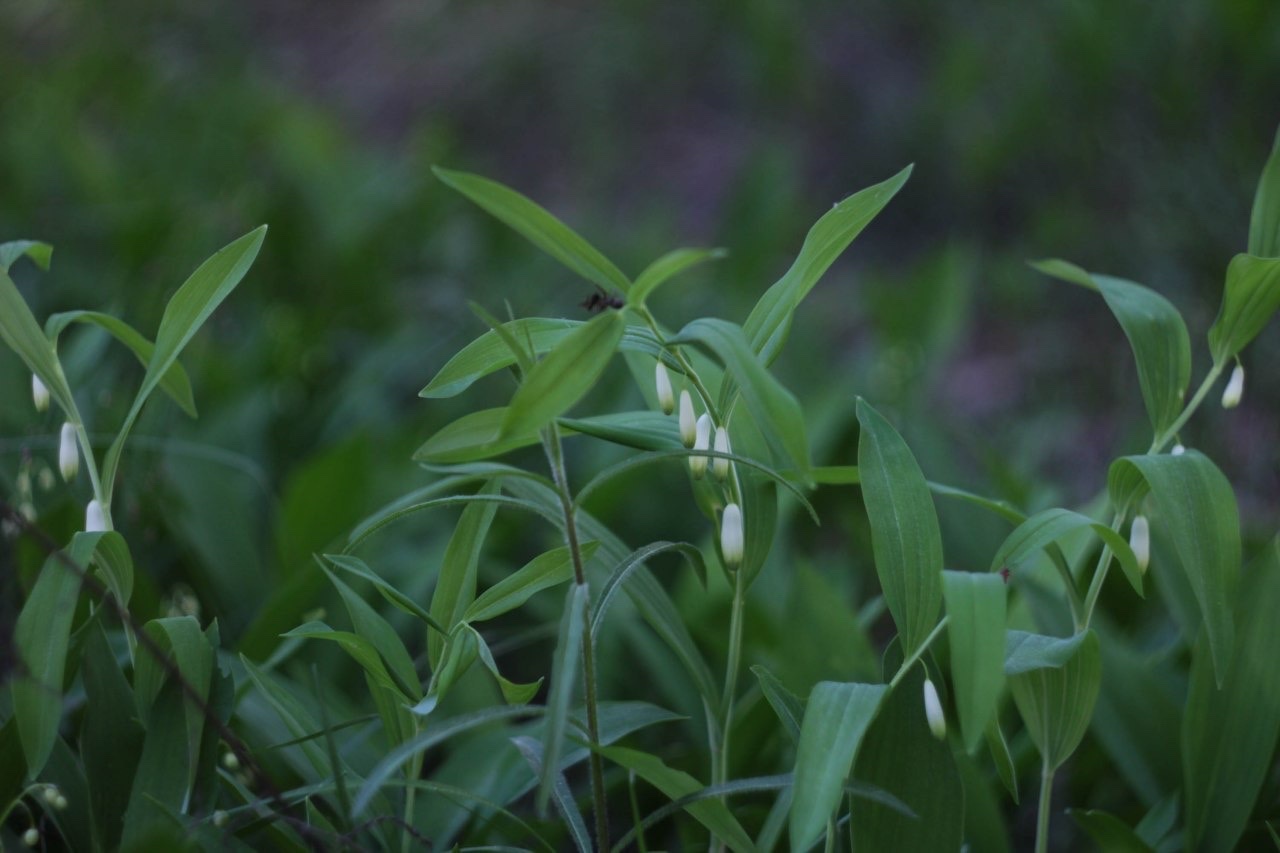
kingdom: Plantae
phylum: Tracheophyta
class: Liliopsida
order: Asparagales
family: Asparagaceae
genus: Polygonatum
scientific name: Polygonatum odoratum
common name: Angular solomon's-seal
